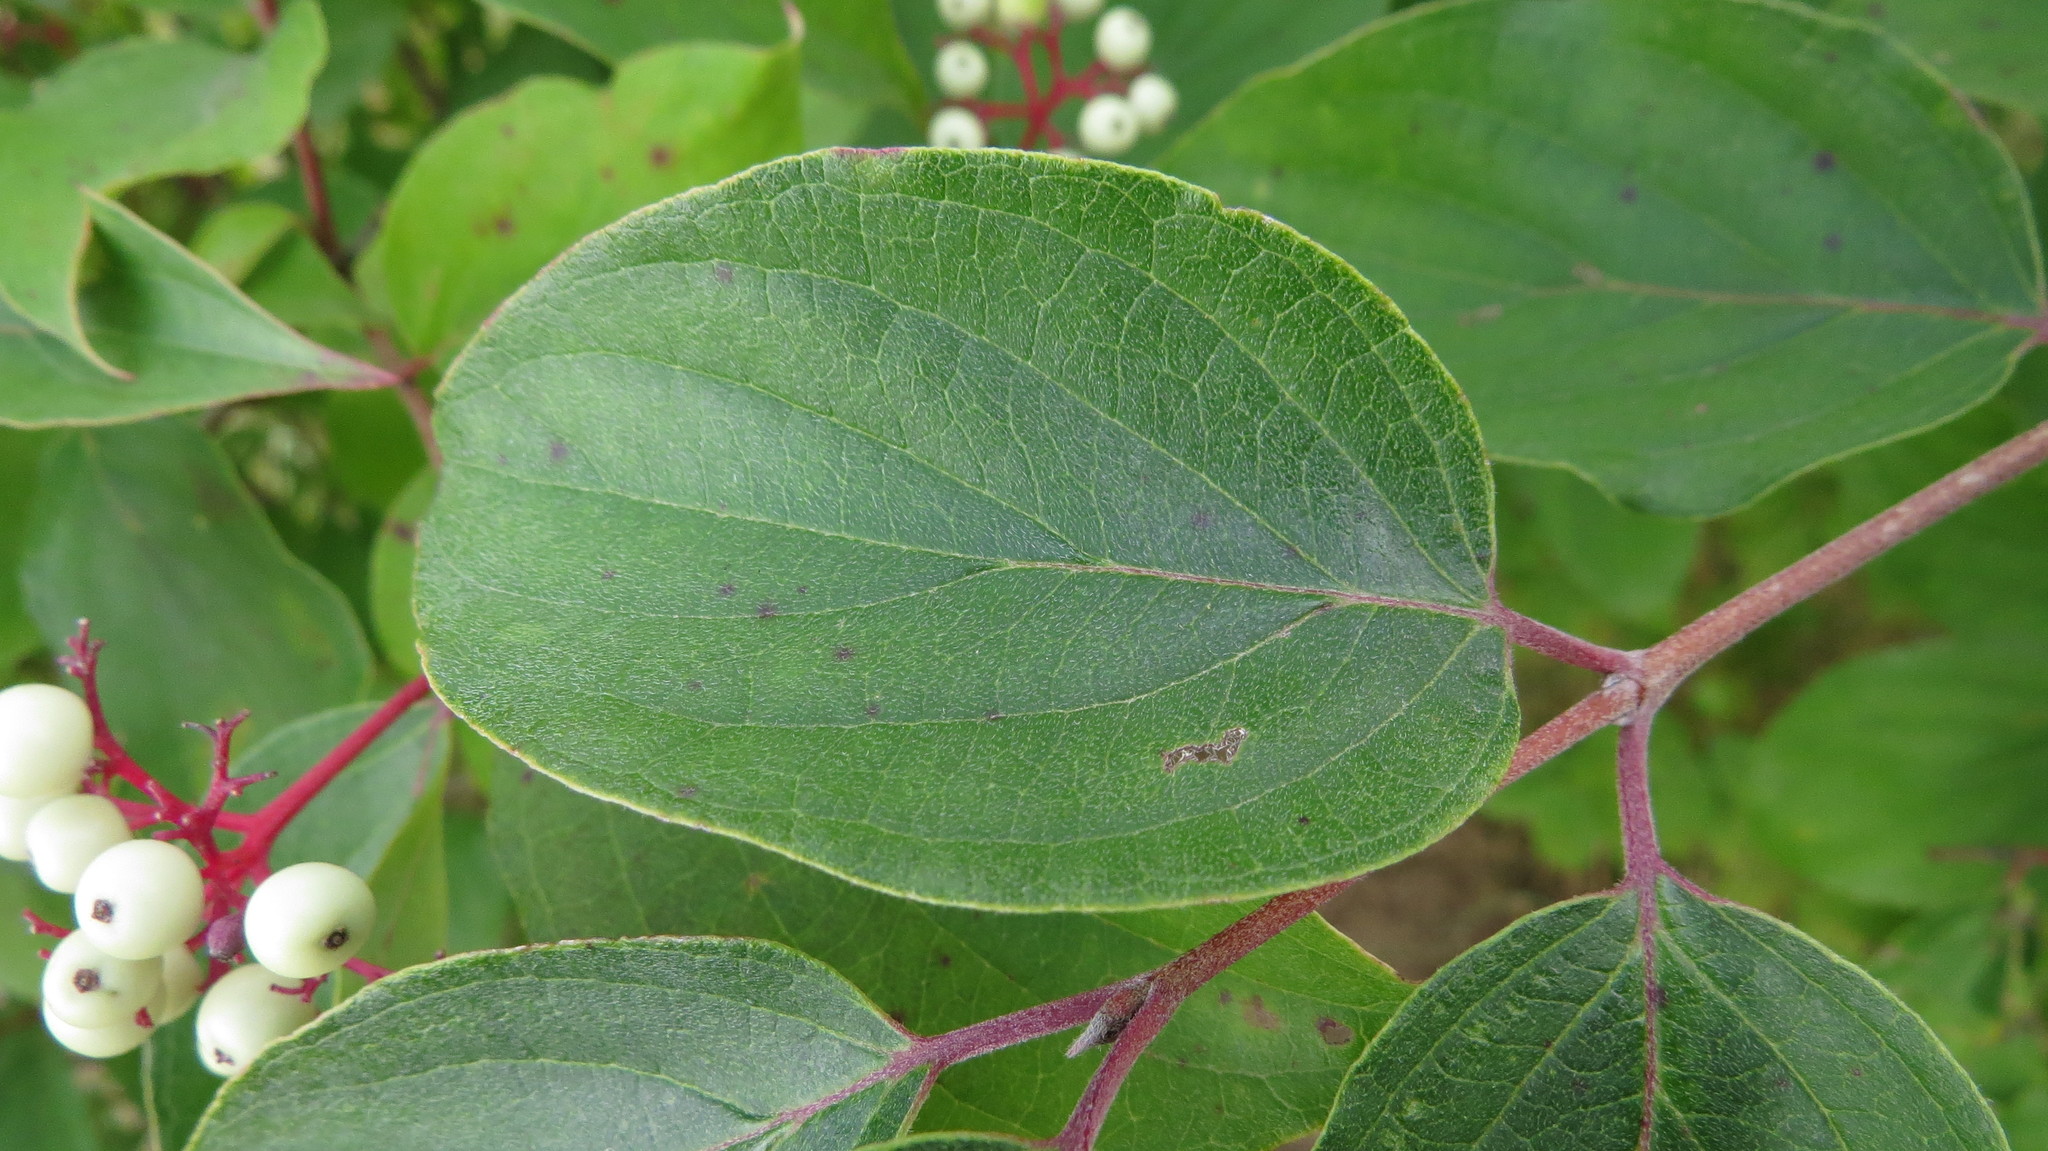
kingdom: Plantae
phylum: Tracheophyta
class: Magnoliopsida
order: Cornales
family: Cornaceae
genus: Cornus
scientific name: Cornus drummondii
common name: Rough-leaf dogwood
